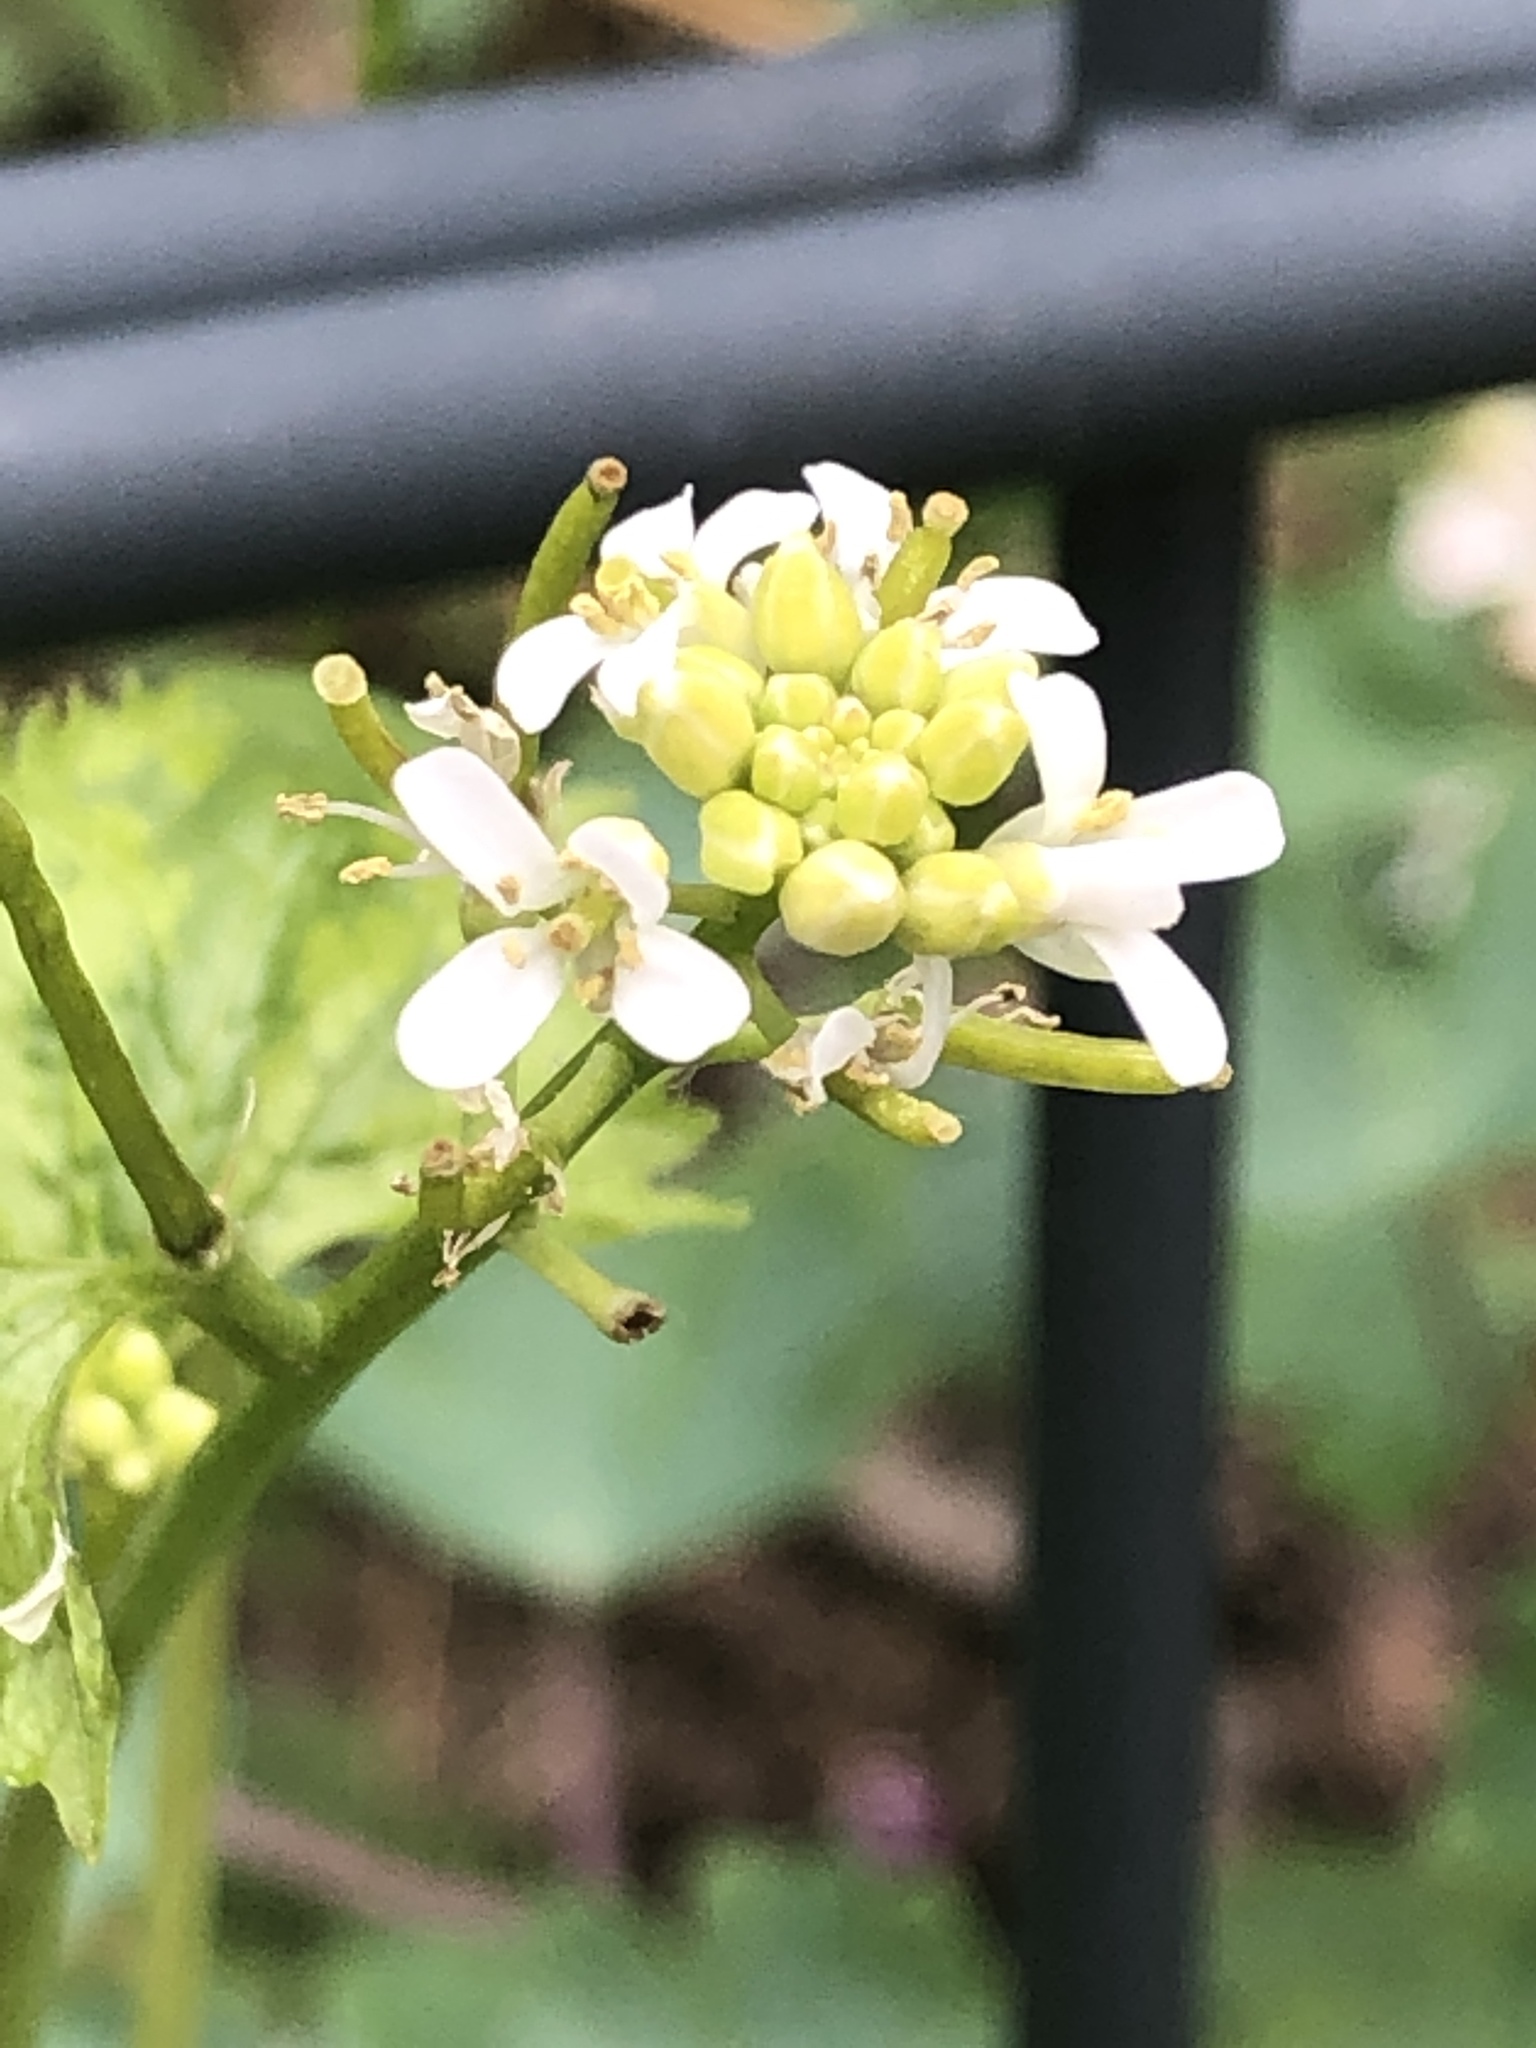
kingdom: Plantae
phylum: Tracheophyta
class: Magnoliopsida
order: Brassicales
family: Brassicaceae
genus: Alliaria
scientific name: Alliaria petiolata
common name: Garlic mustard
